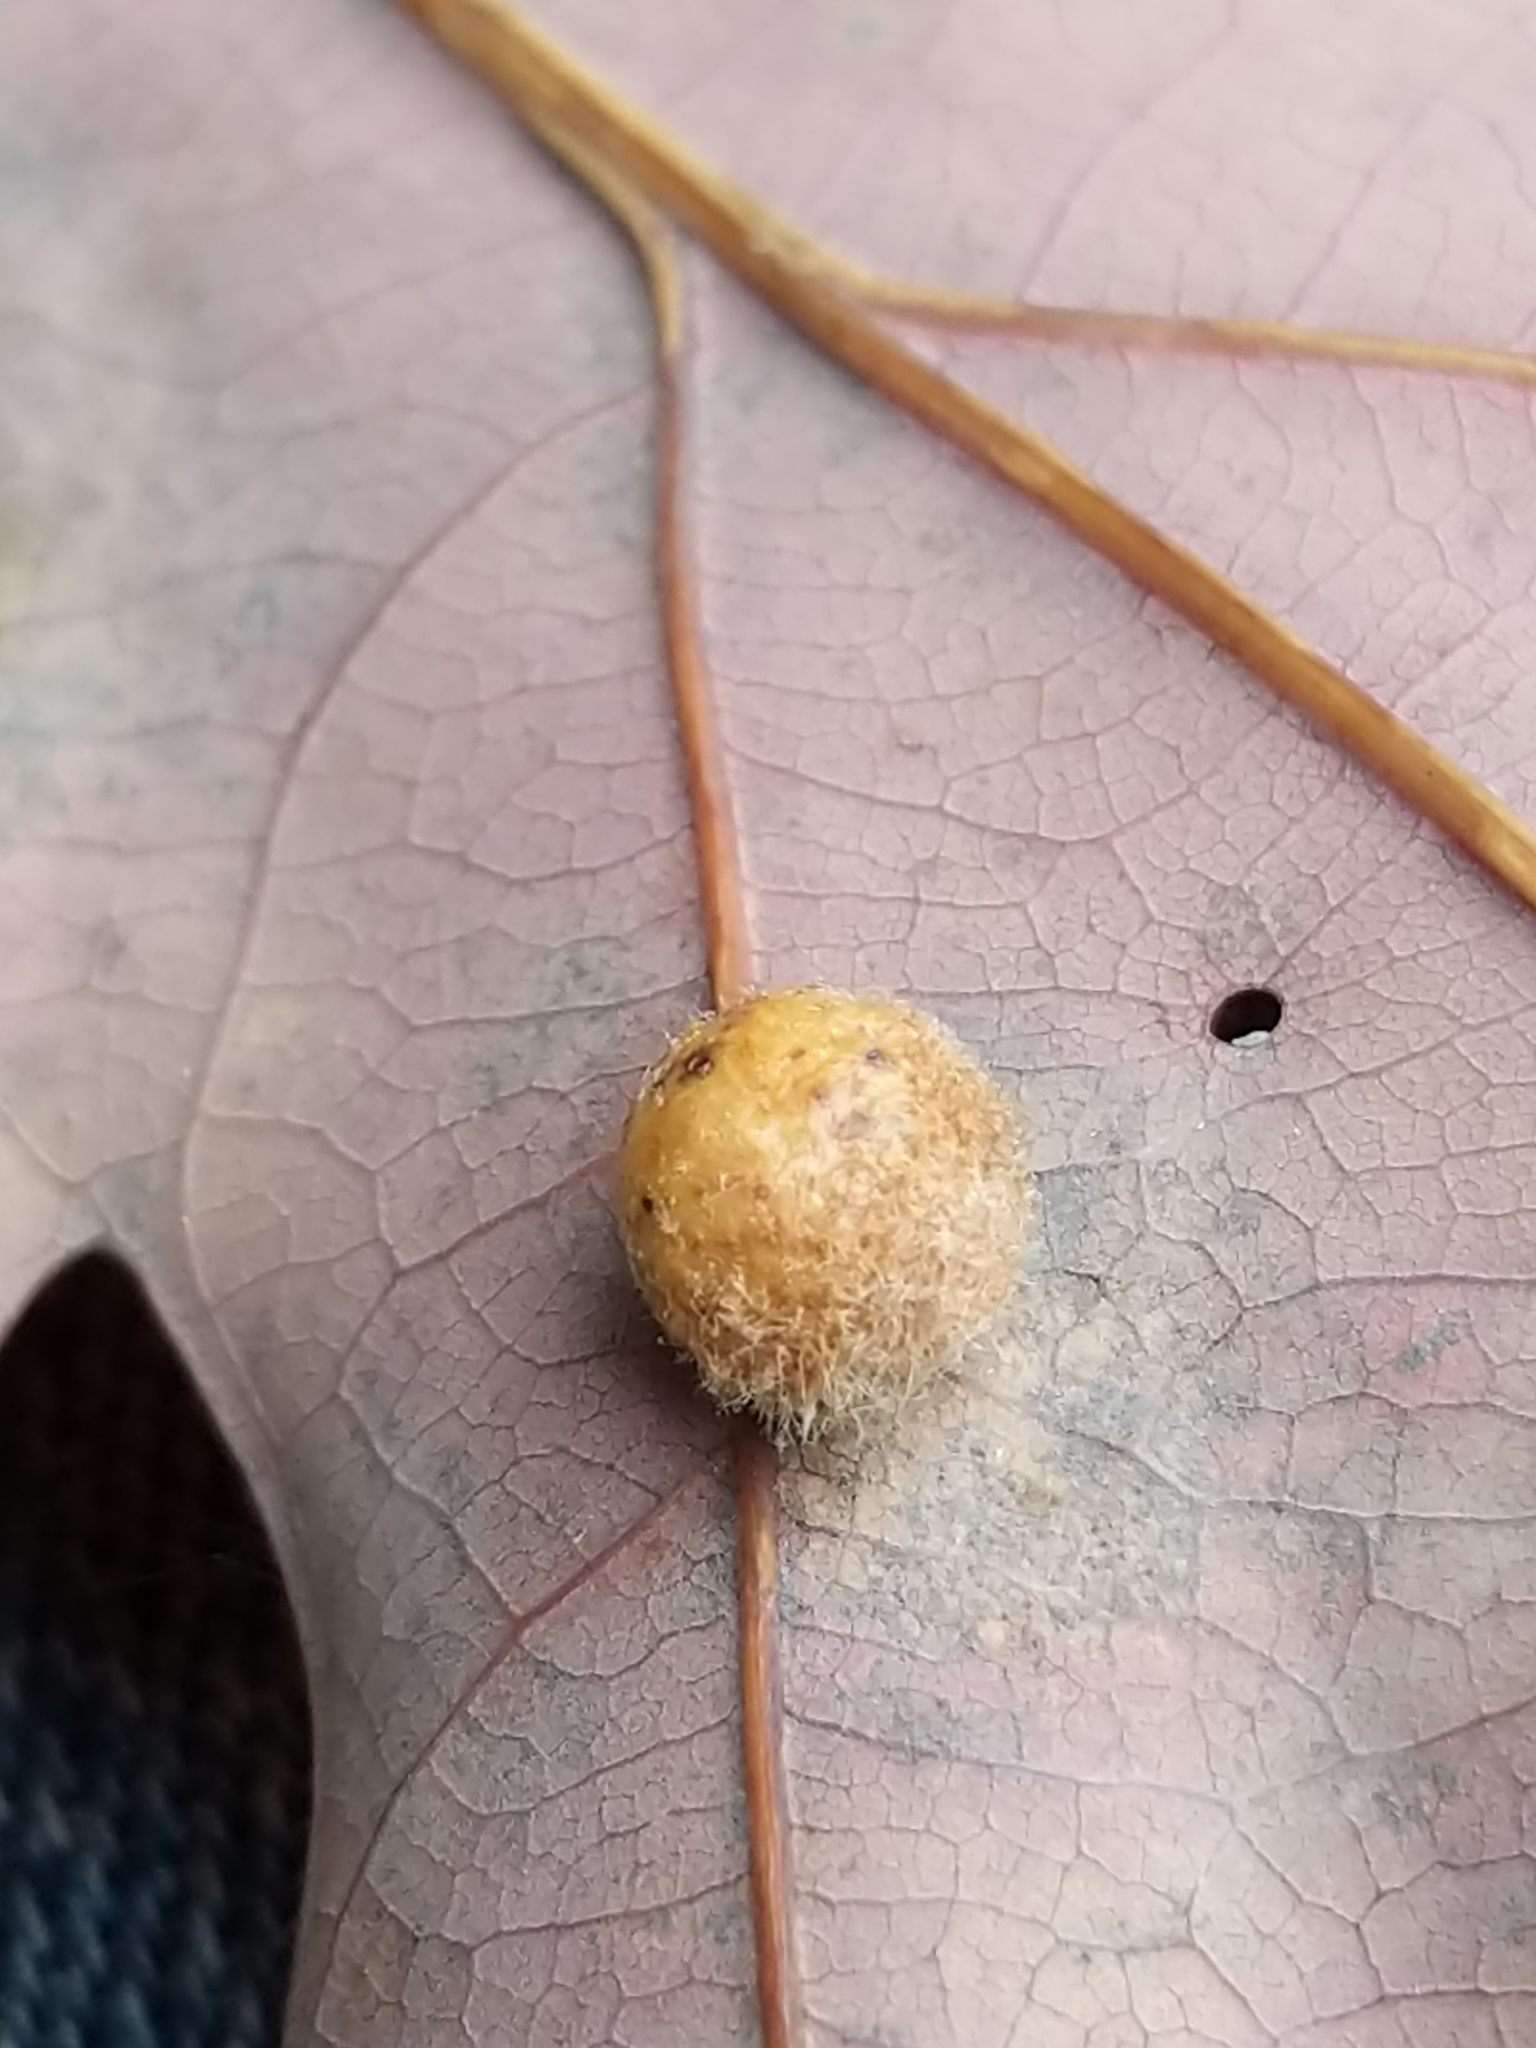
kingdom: Animalia
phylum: Arthropoda
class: Insecta
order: Hymenoptera
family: Cynipidae
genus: Philonix
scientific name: Philonix fulvicollis
